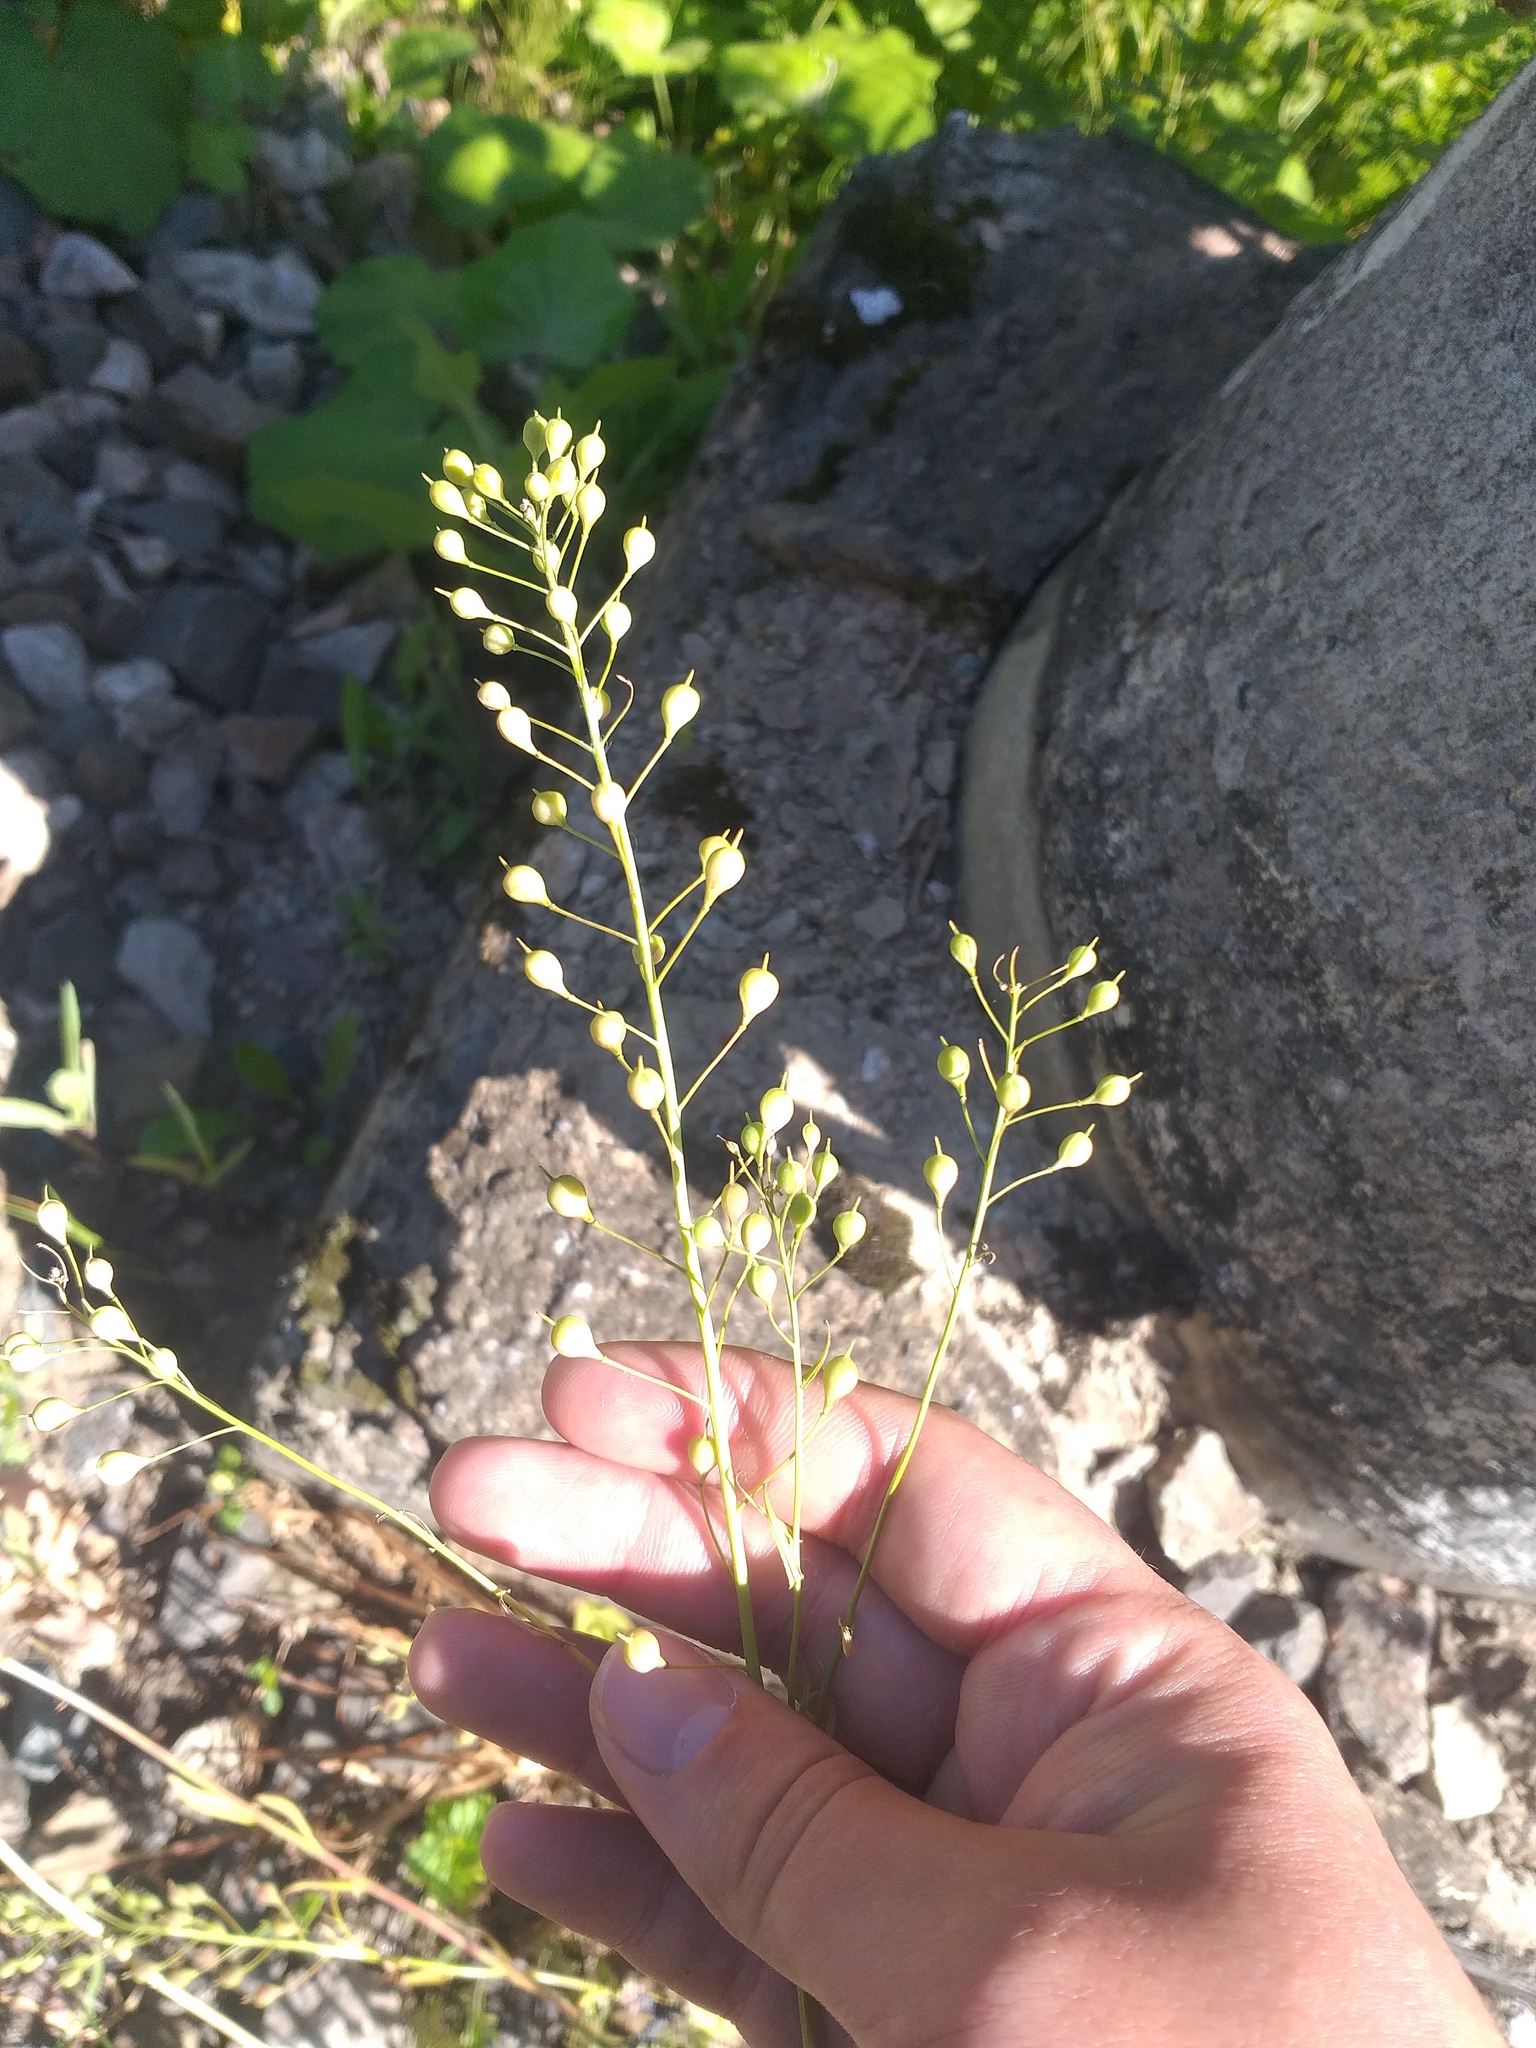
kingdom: Plantae
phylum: Tracheophyta
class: Magnoliopsida
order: Brassicales
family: Brassicaceae
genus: Camelina
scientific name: Camelina sativa
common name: Gold-of-pleasure
